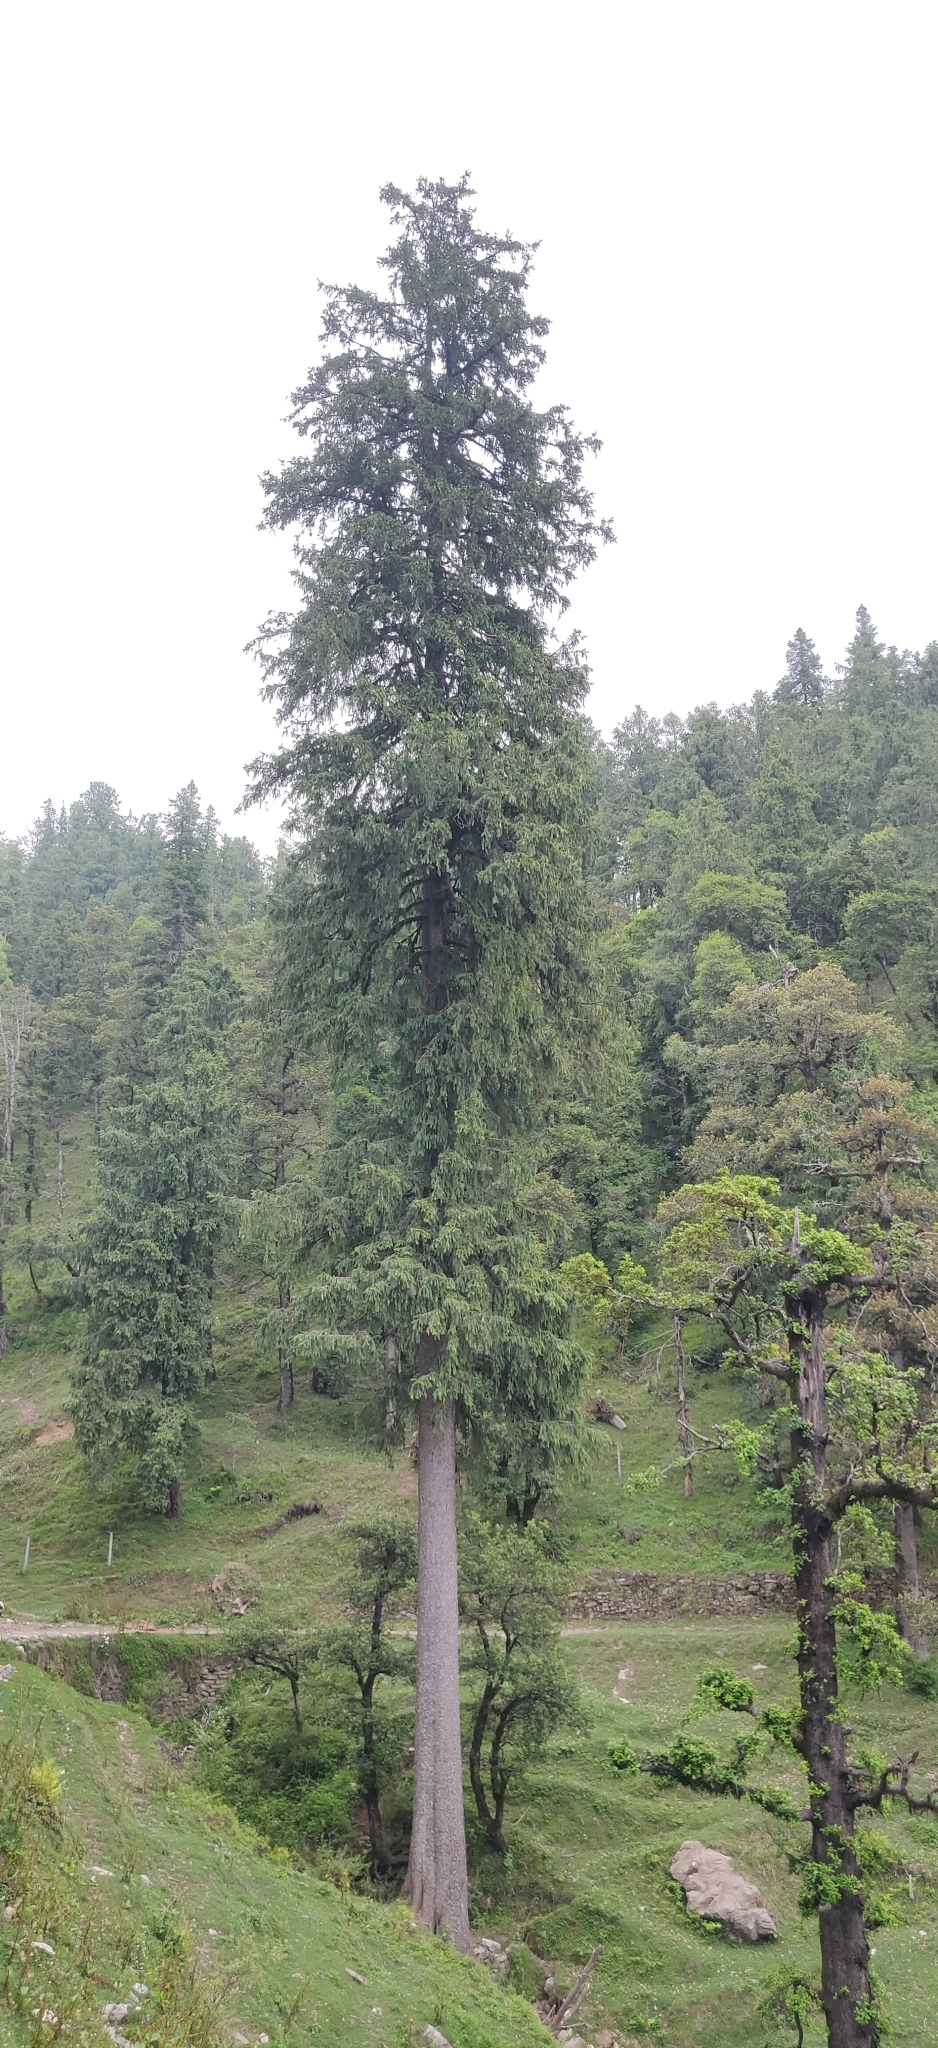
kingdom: Plantae
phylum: Tracheophyta
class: Pinopsida
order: Pinales
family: Pinaceae
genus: Picea
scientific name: Picea smithiana
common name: Morinda spruce
